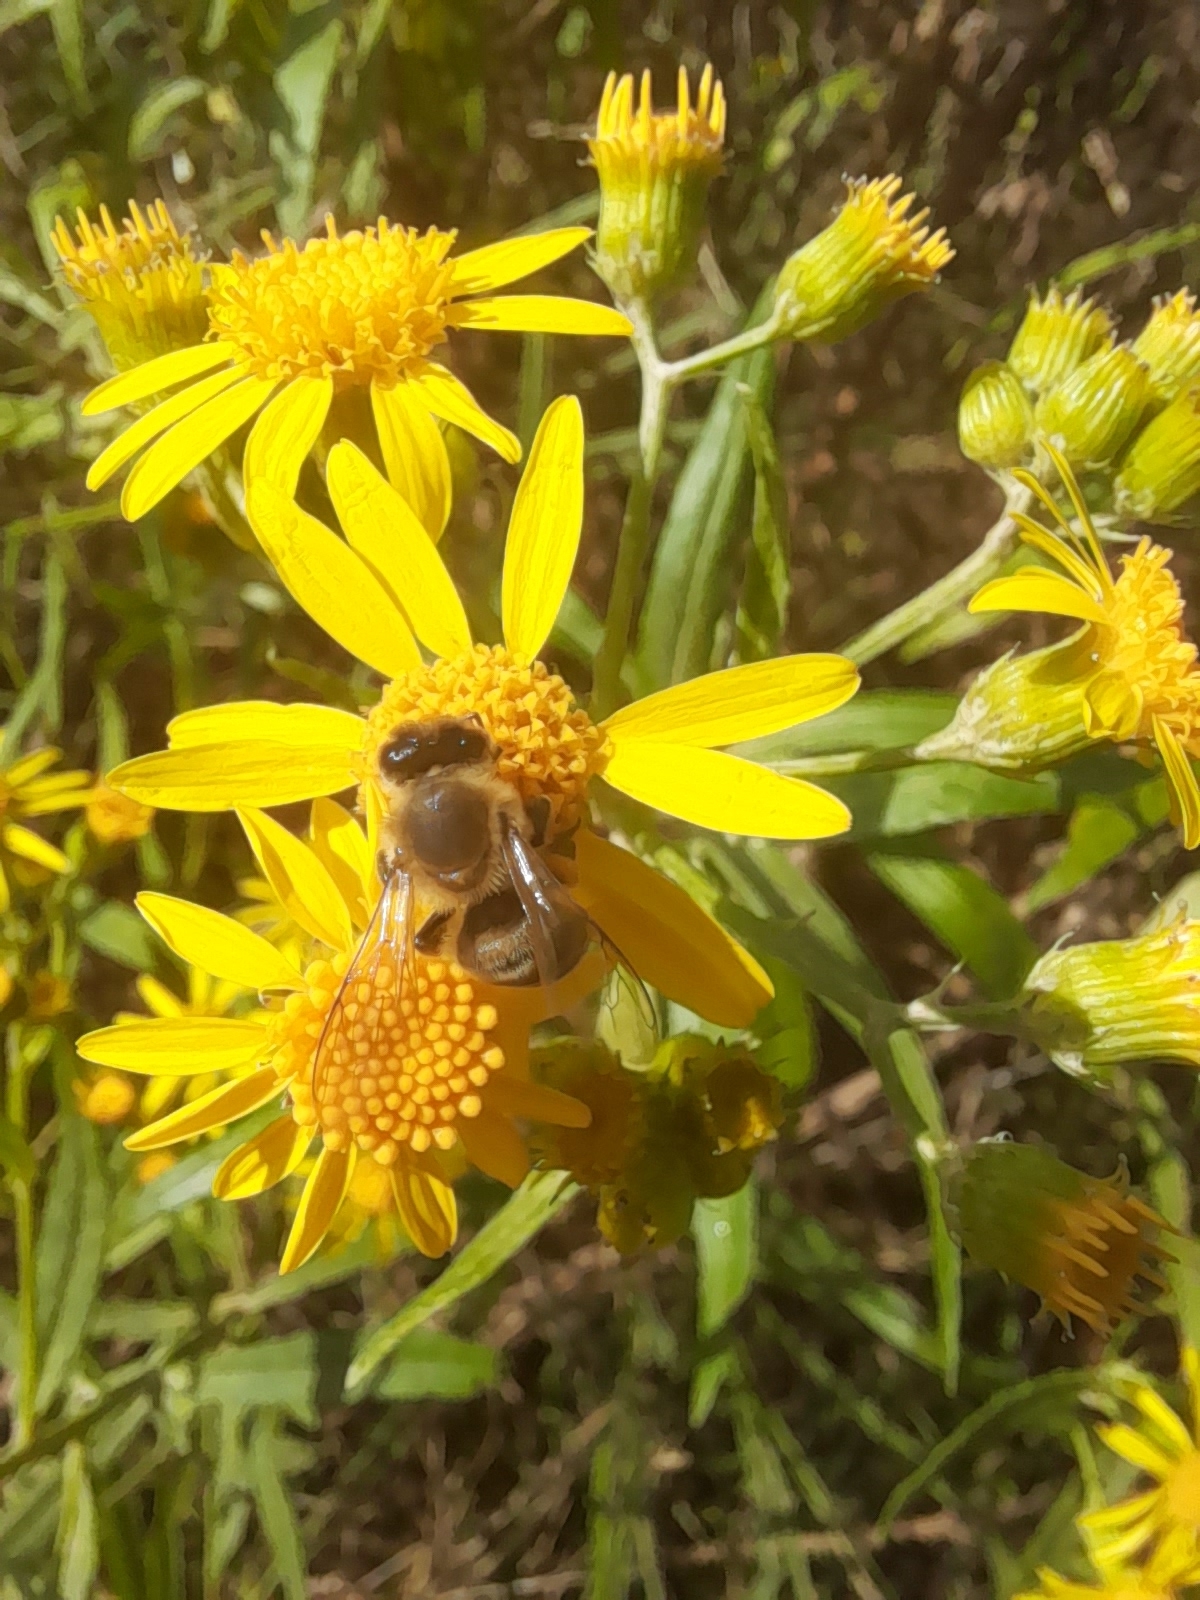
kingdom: Animalia
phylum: Arthropoda
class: Insecta
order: Hymenoptera
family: Apidae
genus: Apis
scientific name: Apis mellifera
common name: Honey bee
